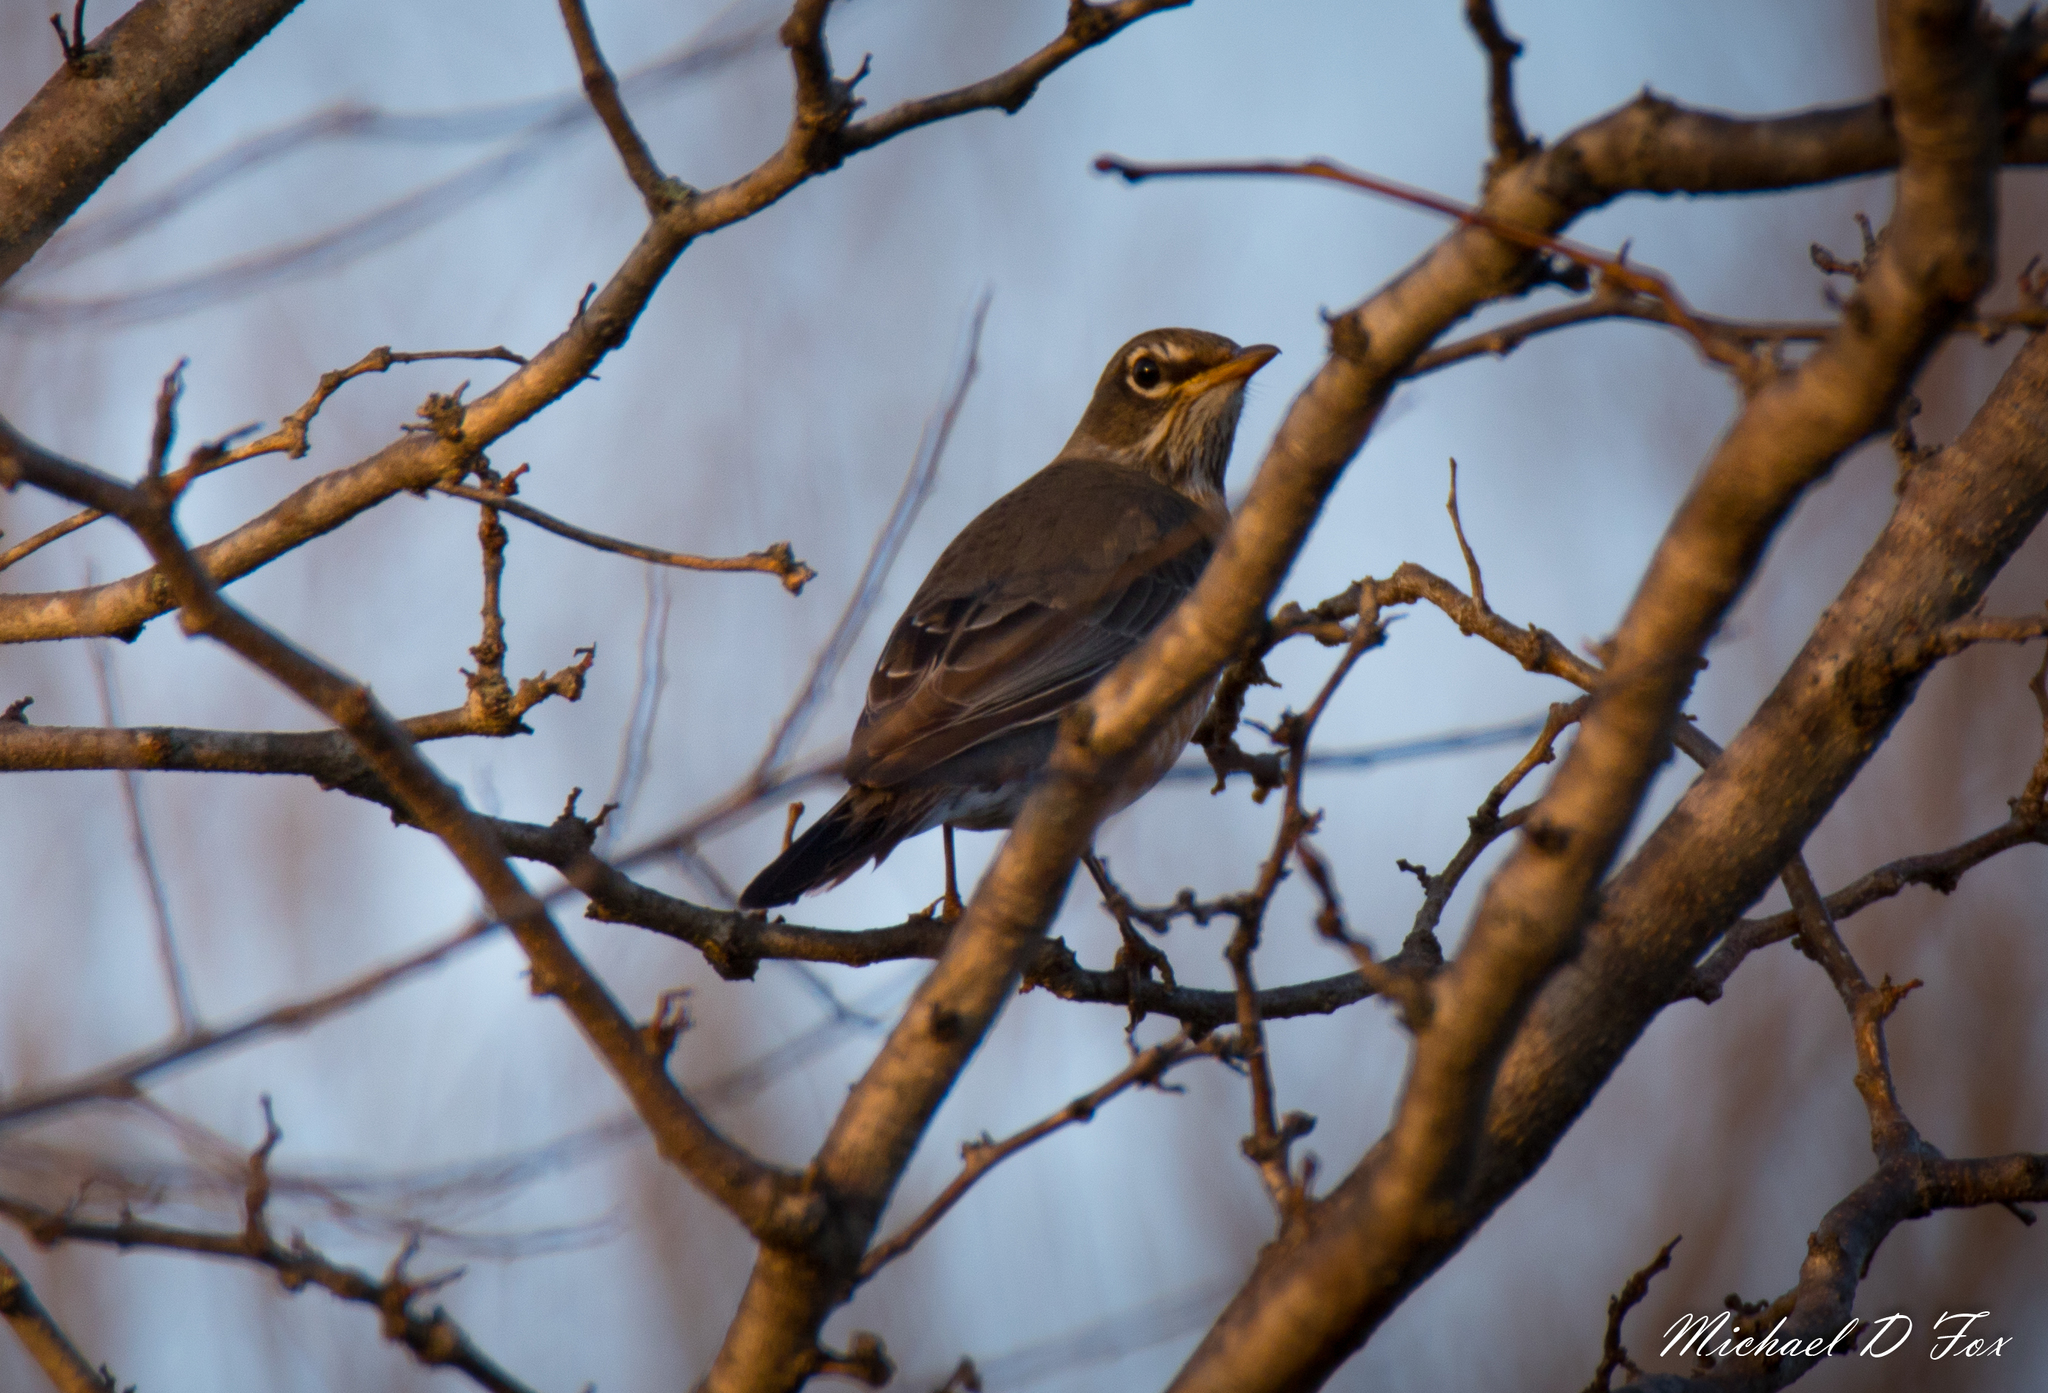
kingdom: Animalia
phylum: Chordata
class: Aves
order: Passeriformes
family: Turdidae
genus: Turdus
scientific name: Turdus migratorius
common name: American robin
